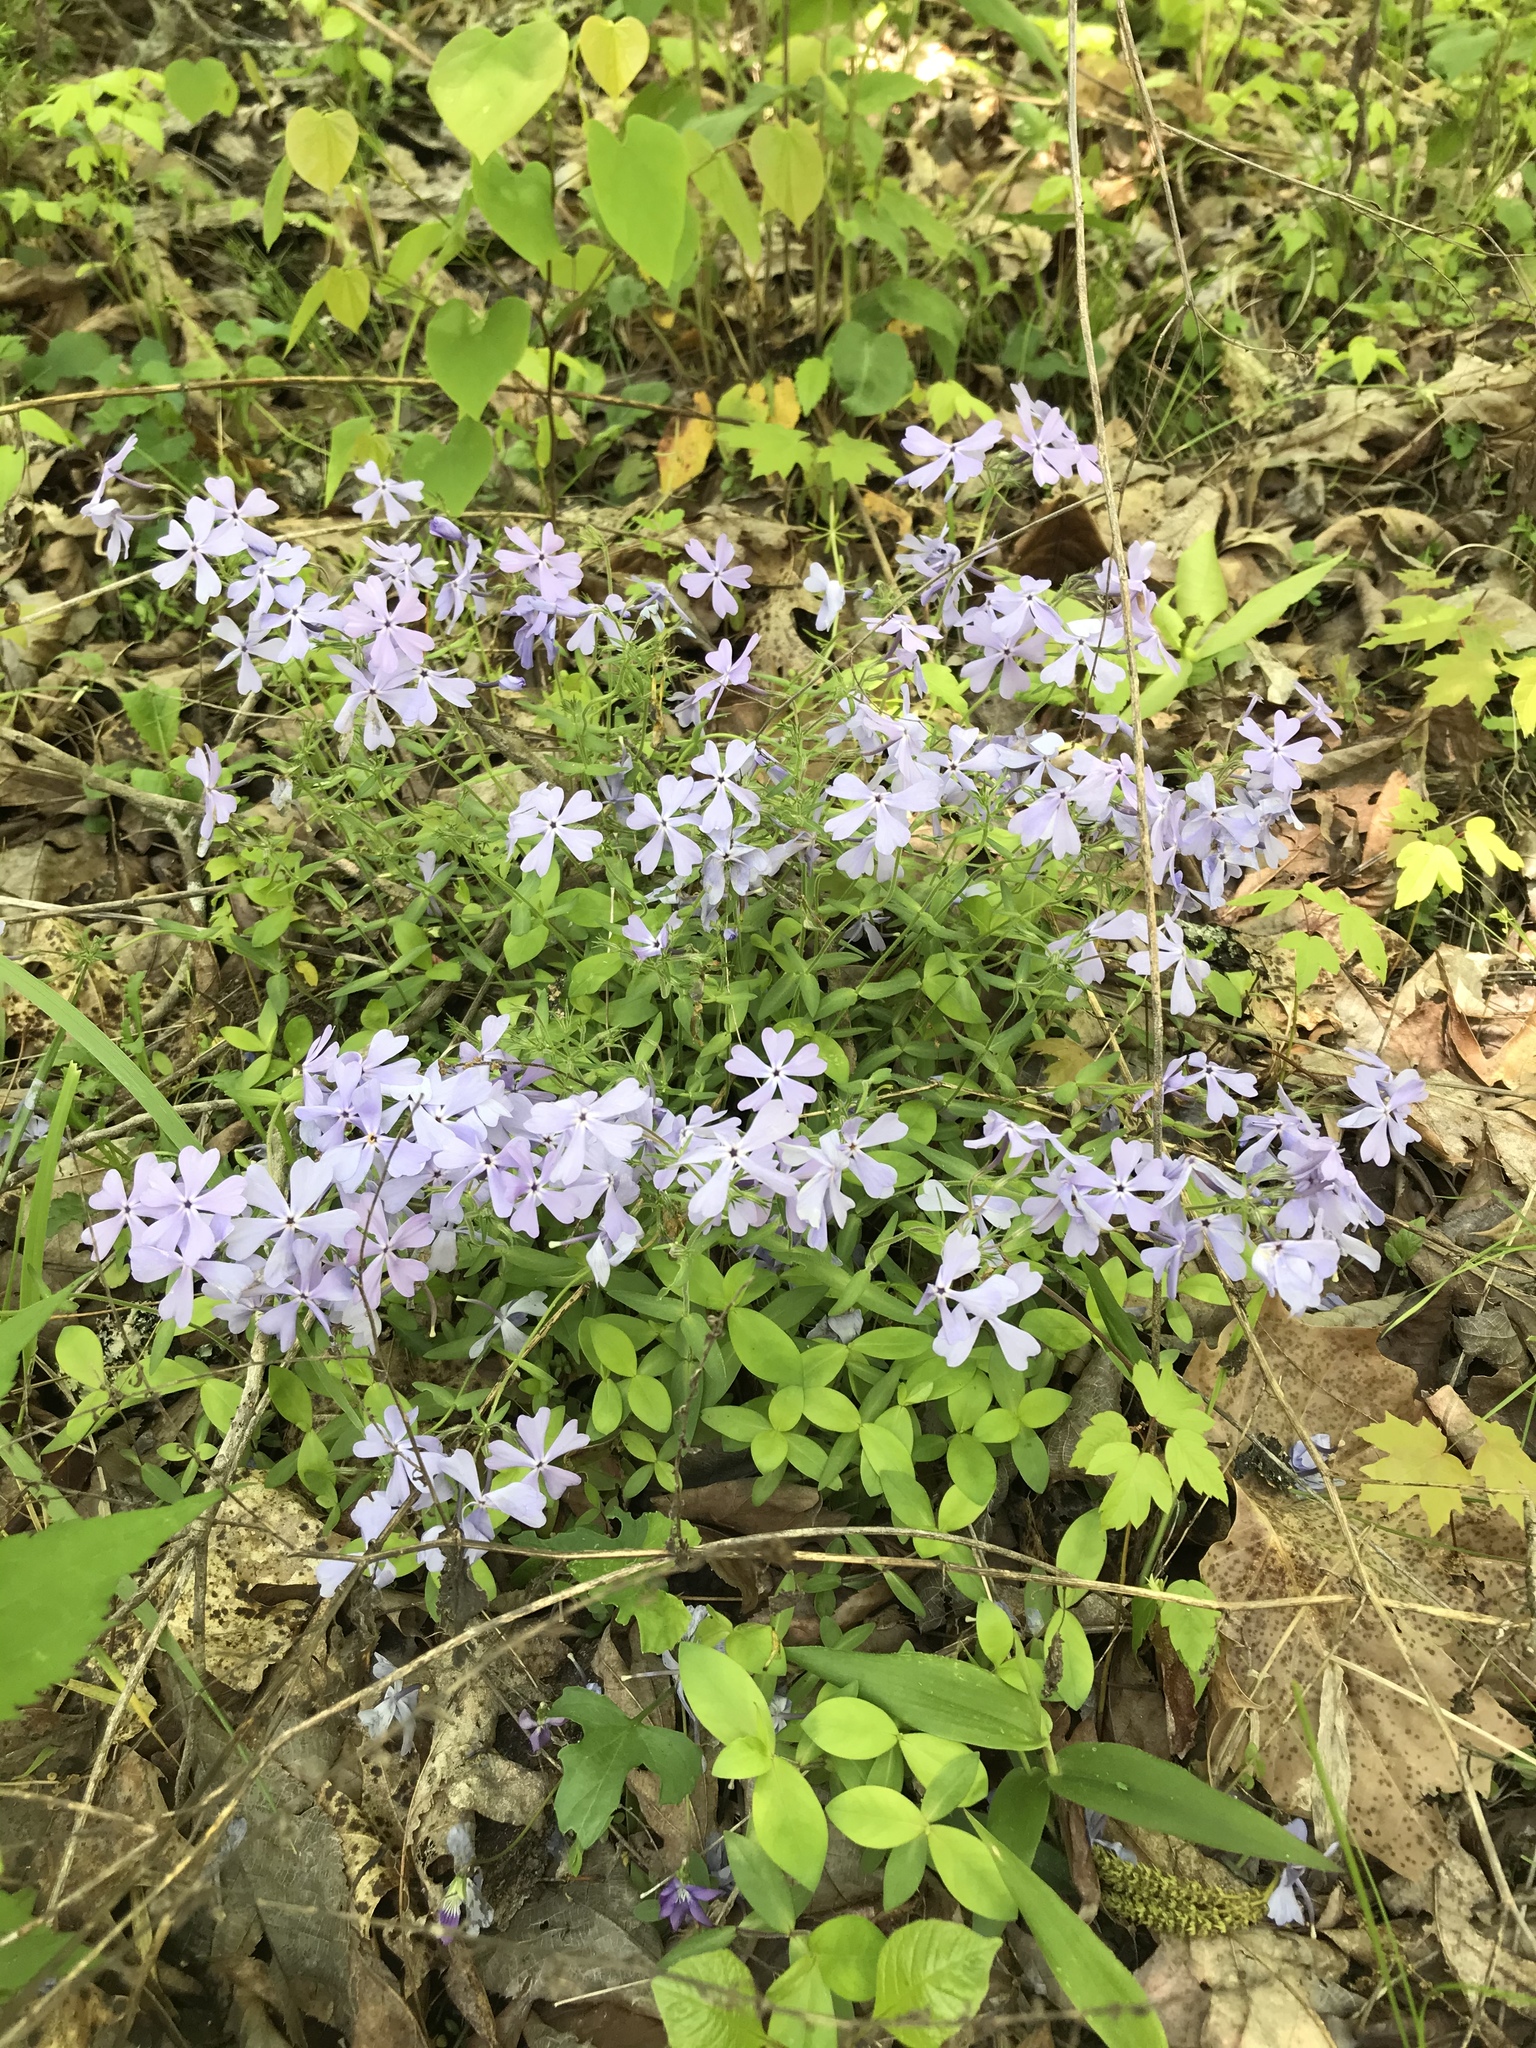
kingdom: Plantae
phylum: Tracheophyta
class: Magnoliopsida
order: Ericales
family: Polemoniaceae
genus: Phlox
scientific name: Phlox divaricata
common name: Blue phlox
